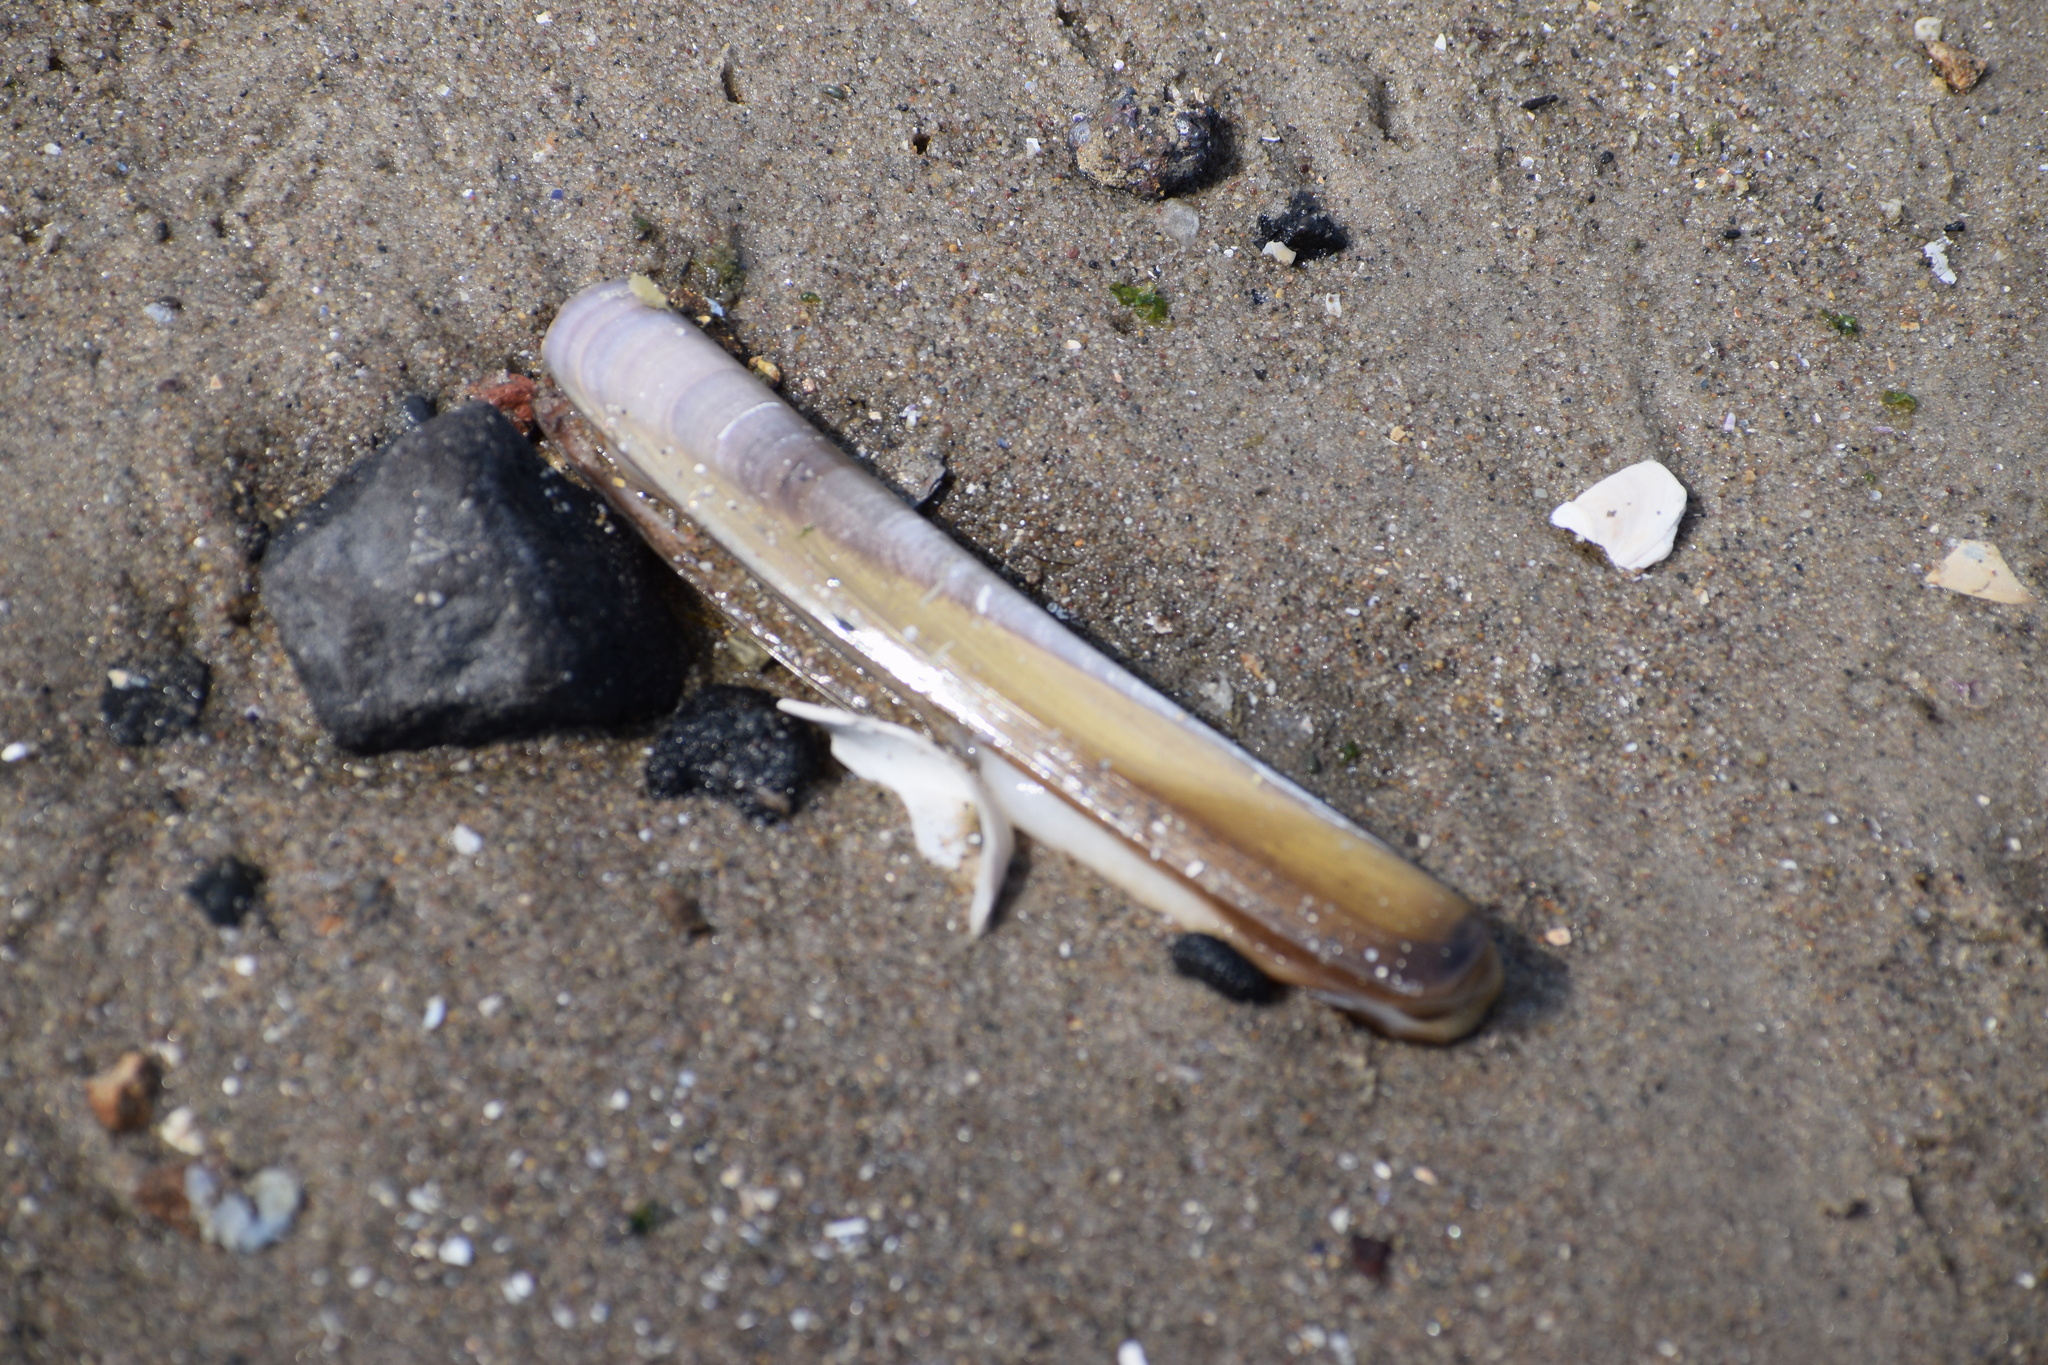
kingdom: Animalia
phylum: Mollusca
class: Bivalvia
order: Adapedonta
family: Pharidae
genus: Ensis
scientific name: Ensis leei
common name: American jack knife clam
